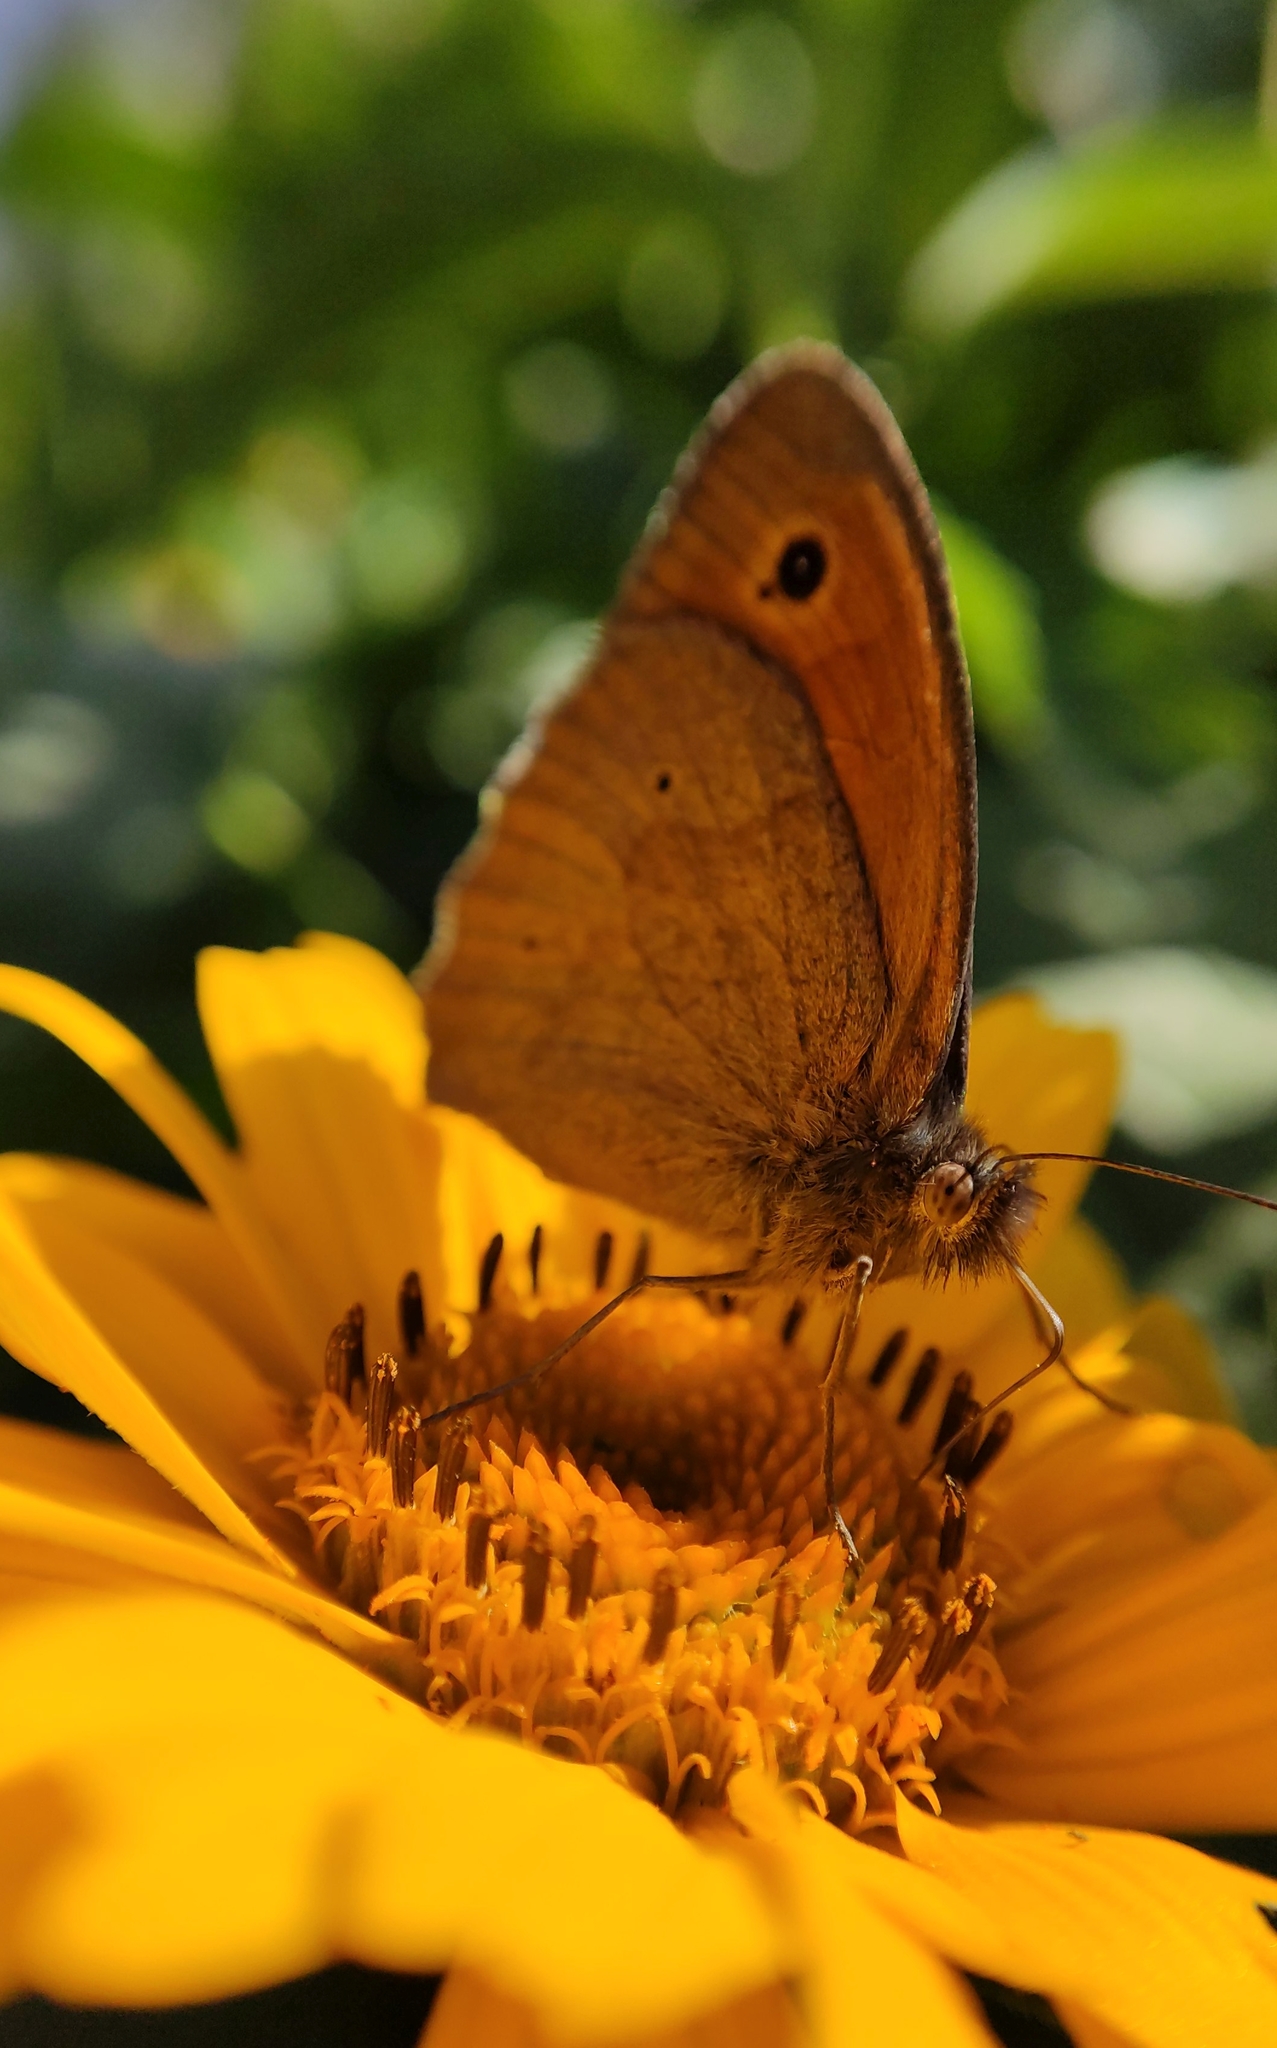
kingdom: Animalia
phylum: Arthropoda
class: Insecta
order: Lepidoptera
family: Nymphalidae
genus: Maniola
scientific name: Maniola jurtina
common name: Meadow brown
